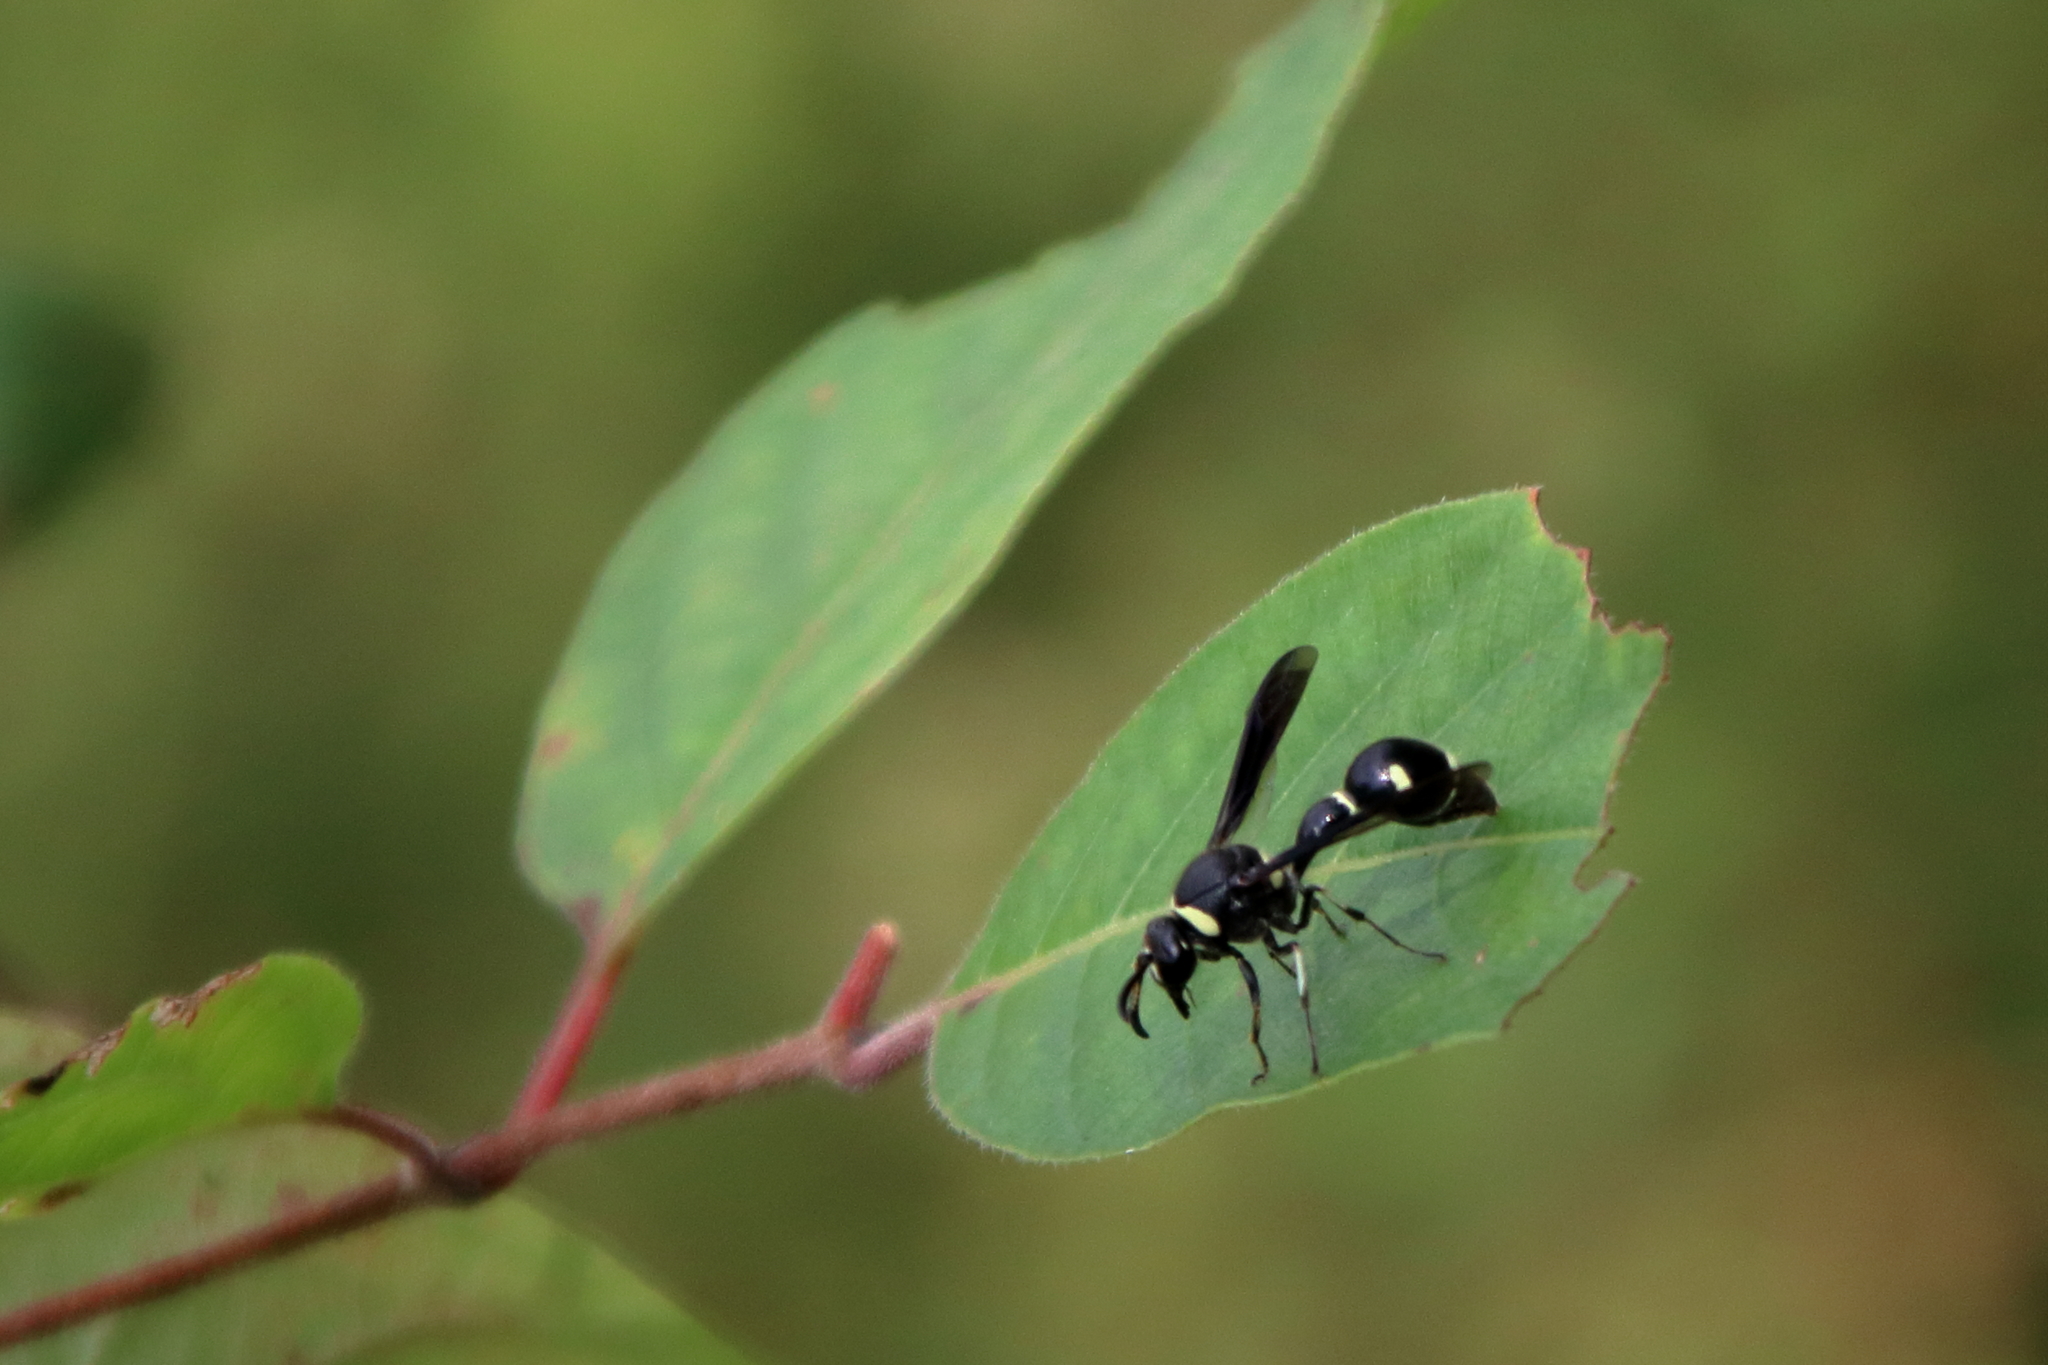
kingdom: Animalia
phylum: Arthropoda
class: Insecta
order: Hymenoptera
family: Vespidae
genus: Eumenes
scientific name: Eumenes fraternus
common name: Fraternal potter wasp
